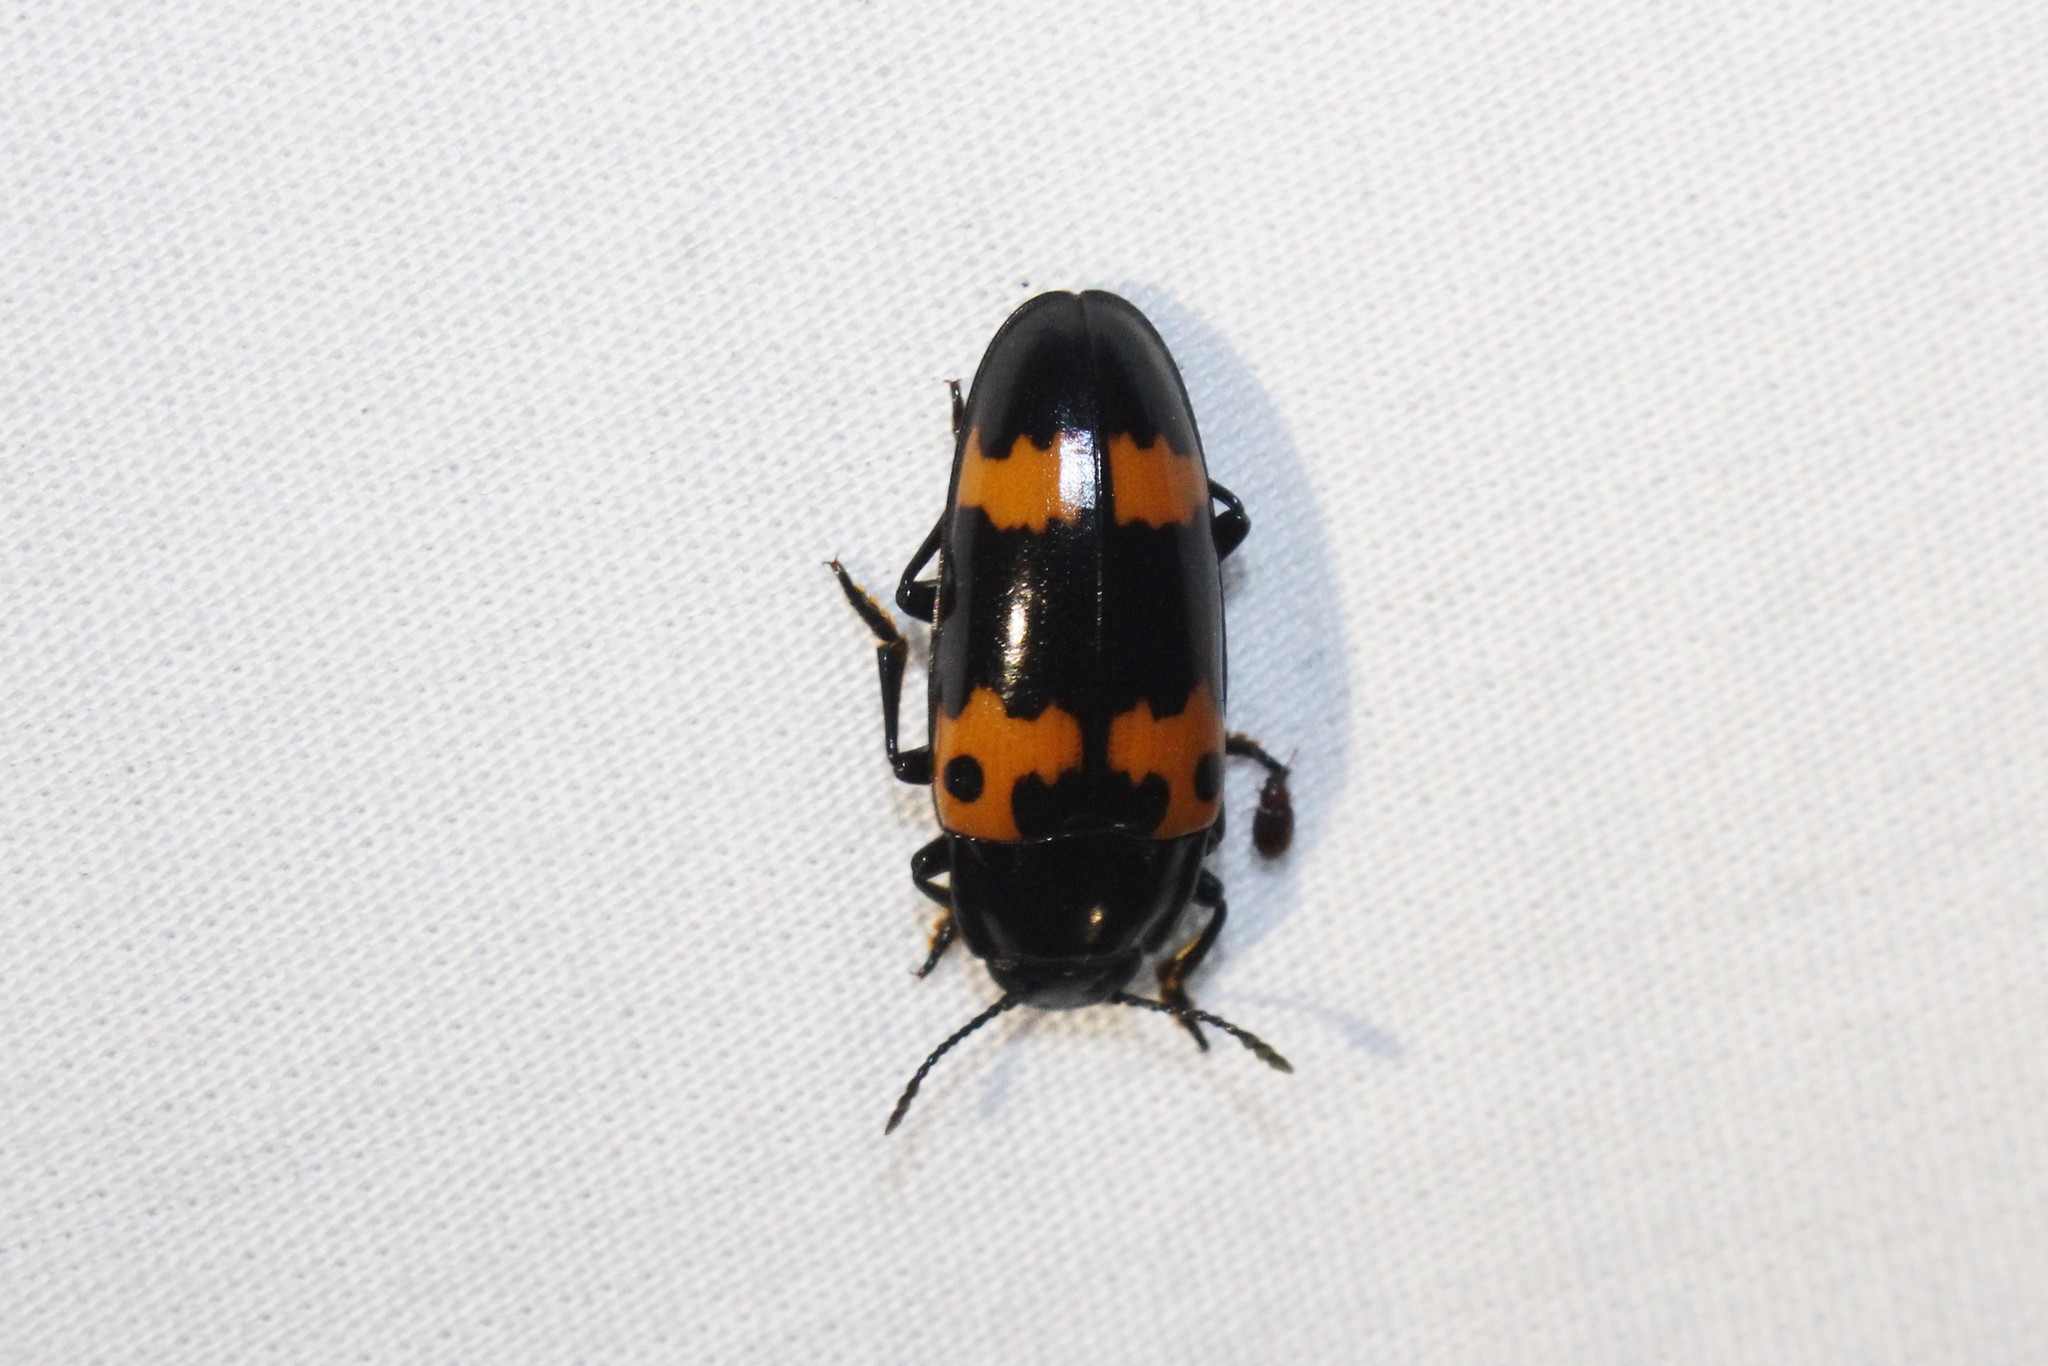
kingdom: Animalia
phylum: Arthropoda
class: Insecta
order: Coleoptera
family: Erotylidae
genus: Megalodacne
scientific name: Megalodacne fasciata
